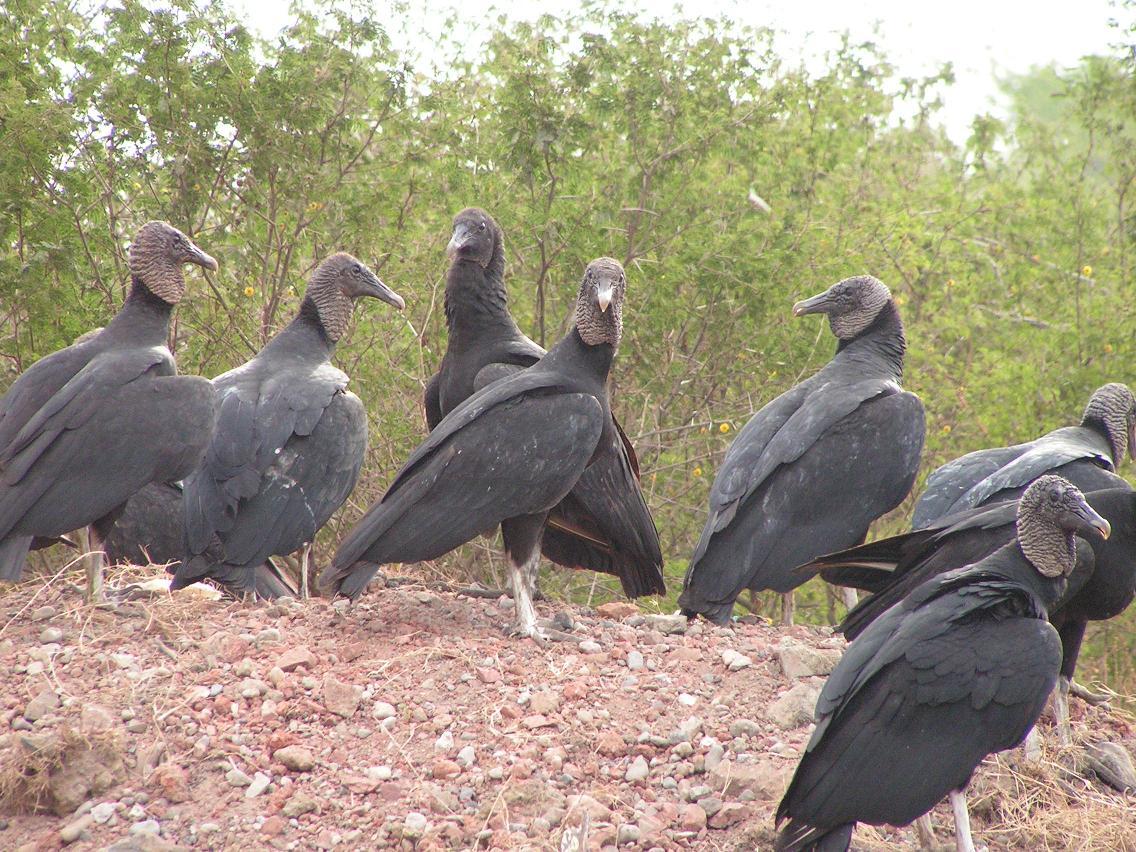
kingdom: Animalia
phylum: Chordata
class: Aves
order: Accipitriformes
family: Cathartidae
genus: Coragyps
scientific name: Coragyps atratus
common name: Black vulture
